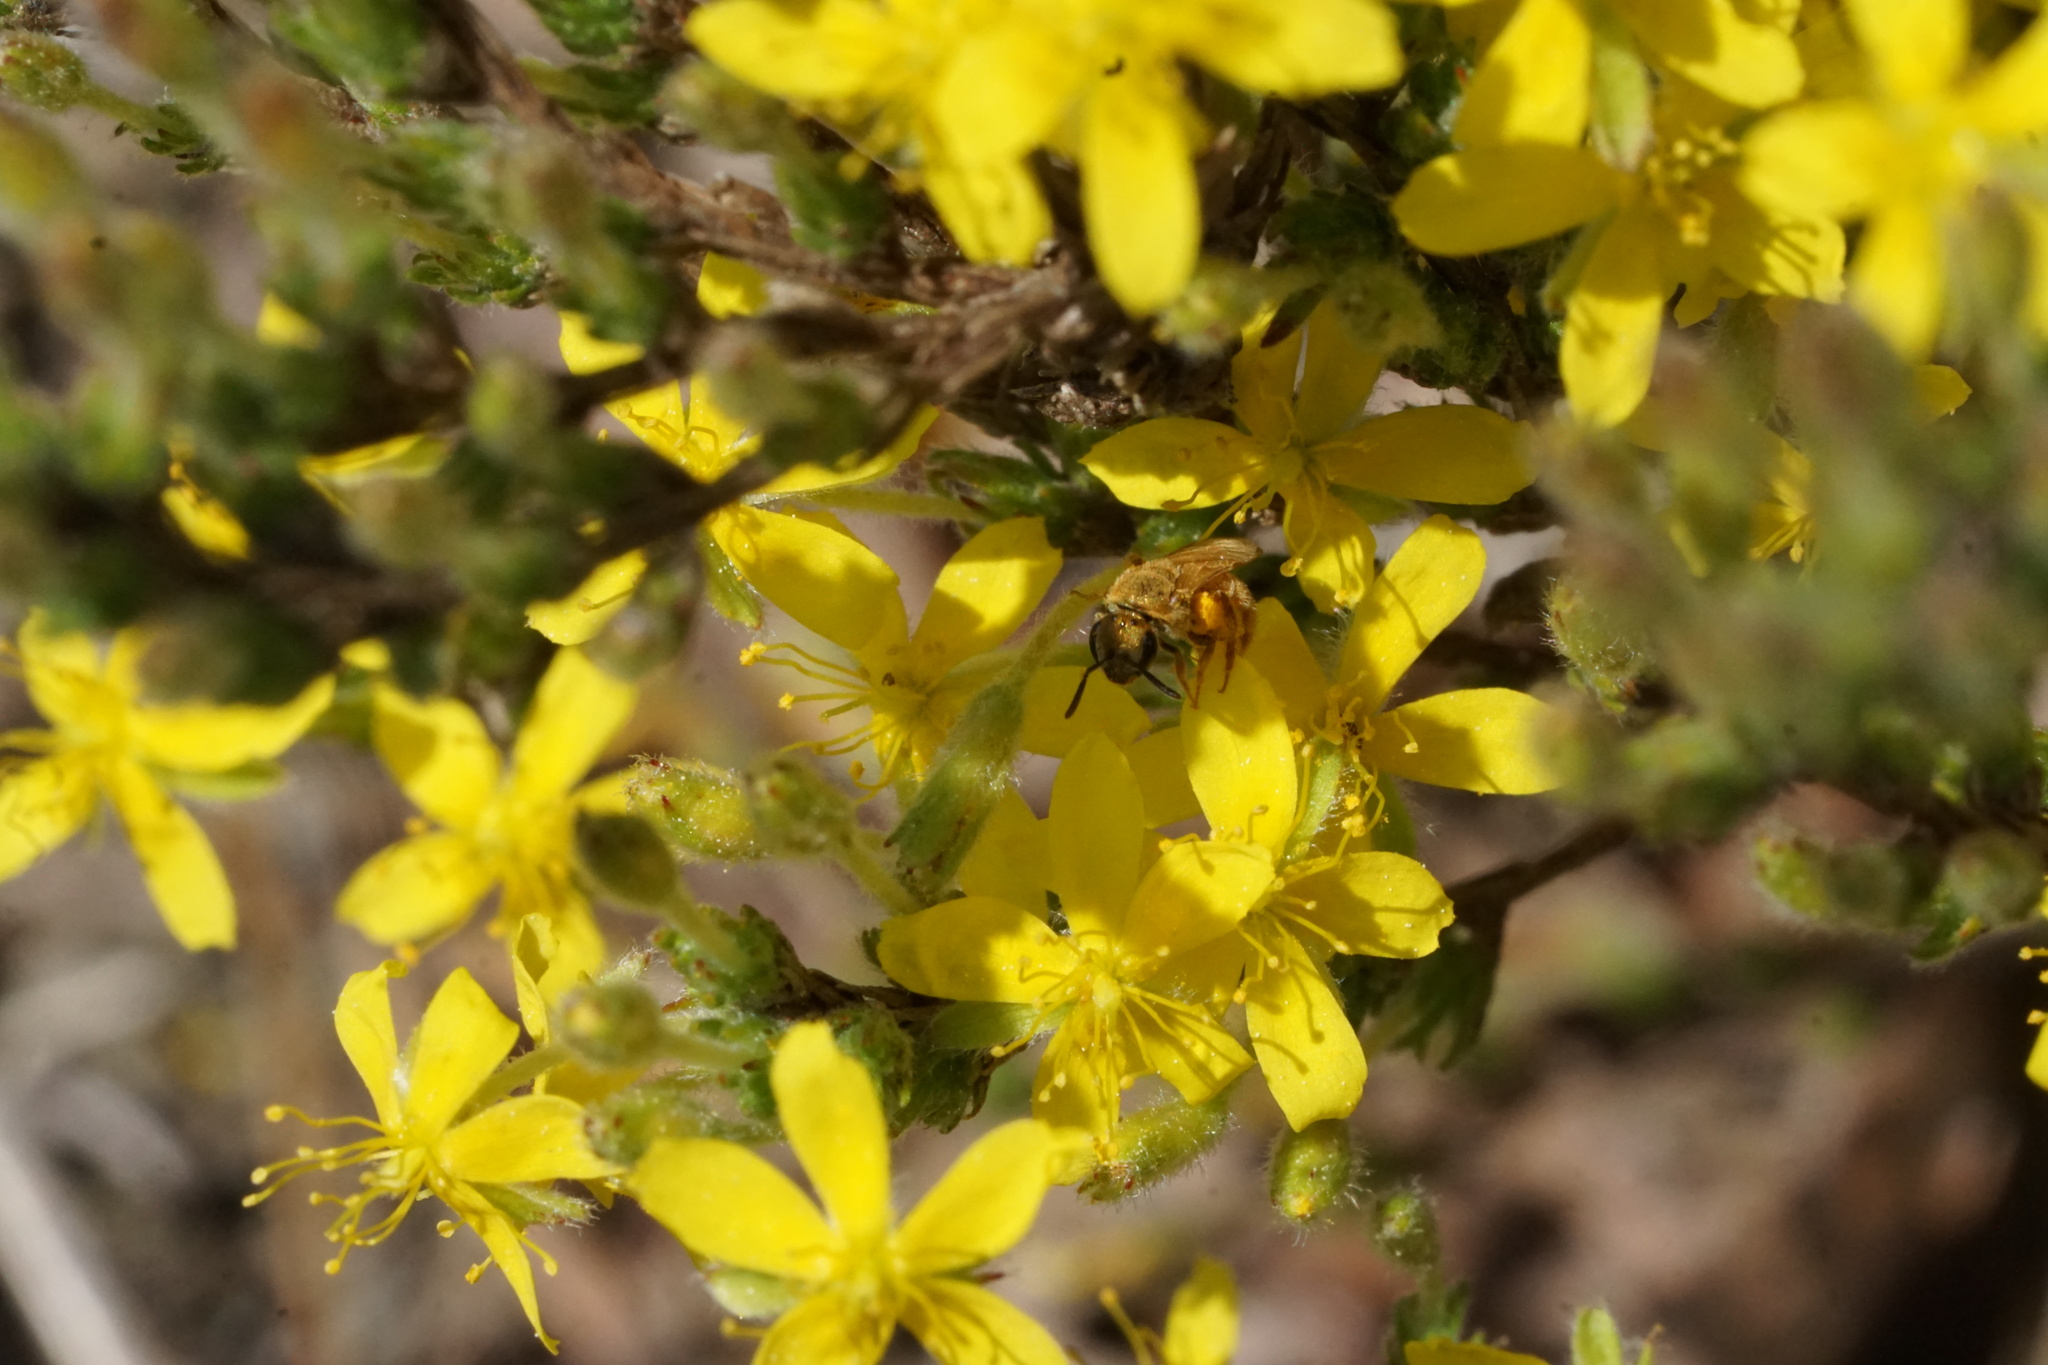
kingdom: Animalia
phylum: Arthropoda
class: Insecta
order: Hymenoptera
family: Halictidae
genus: Lasioglossum
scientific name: Lasioglossum vierecki
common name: Viereck's sweat bee
